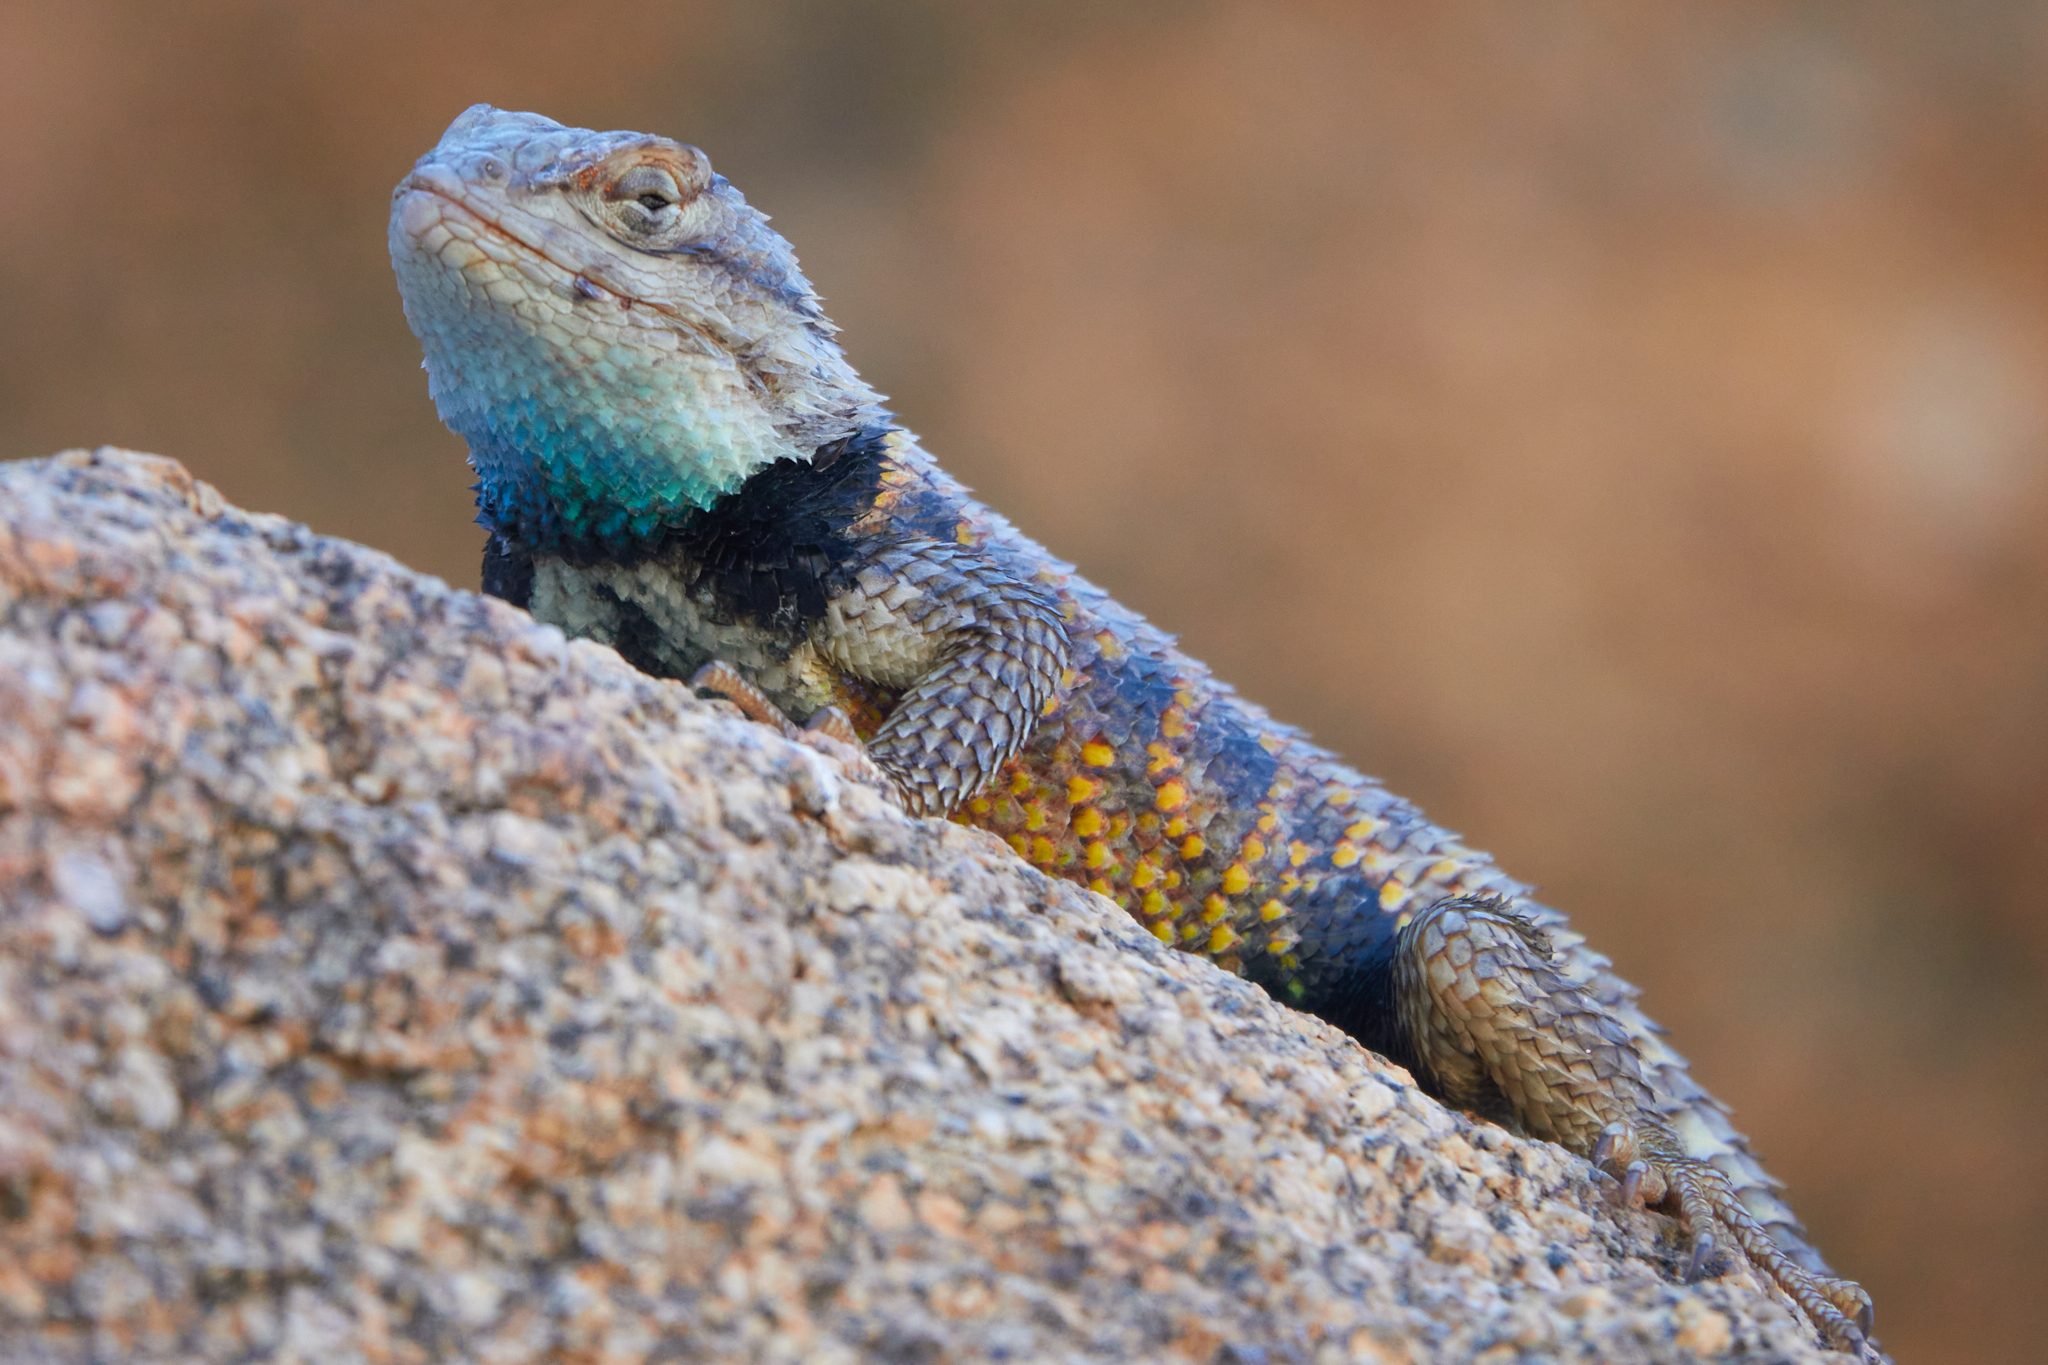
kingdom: Animalia
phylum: Chordata
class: Squamata
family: Phrynosomatidae
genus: Sceloporus
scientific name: Sceloporus magister
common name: Desert spiny lizard
